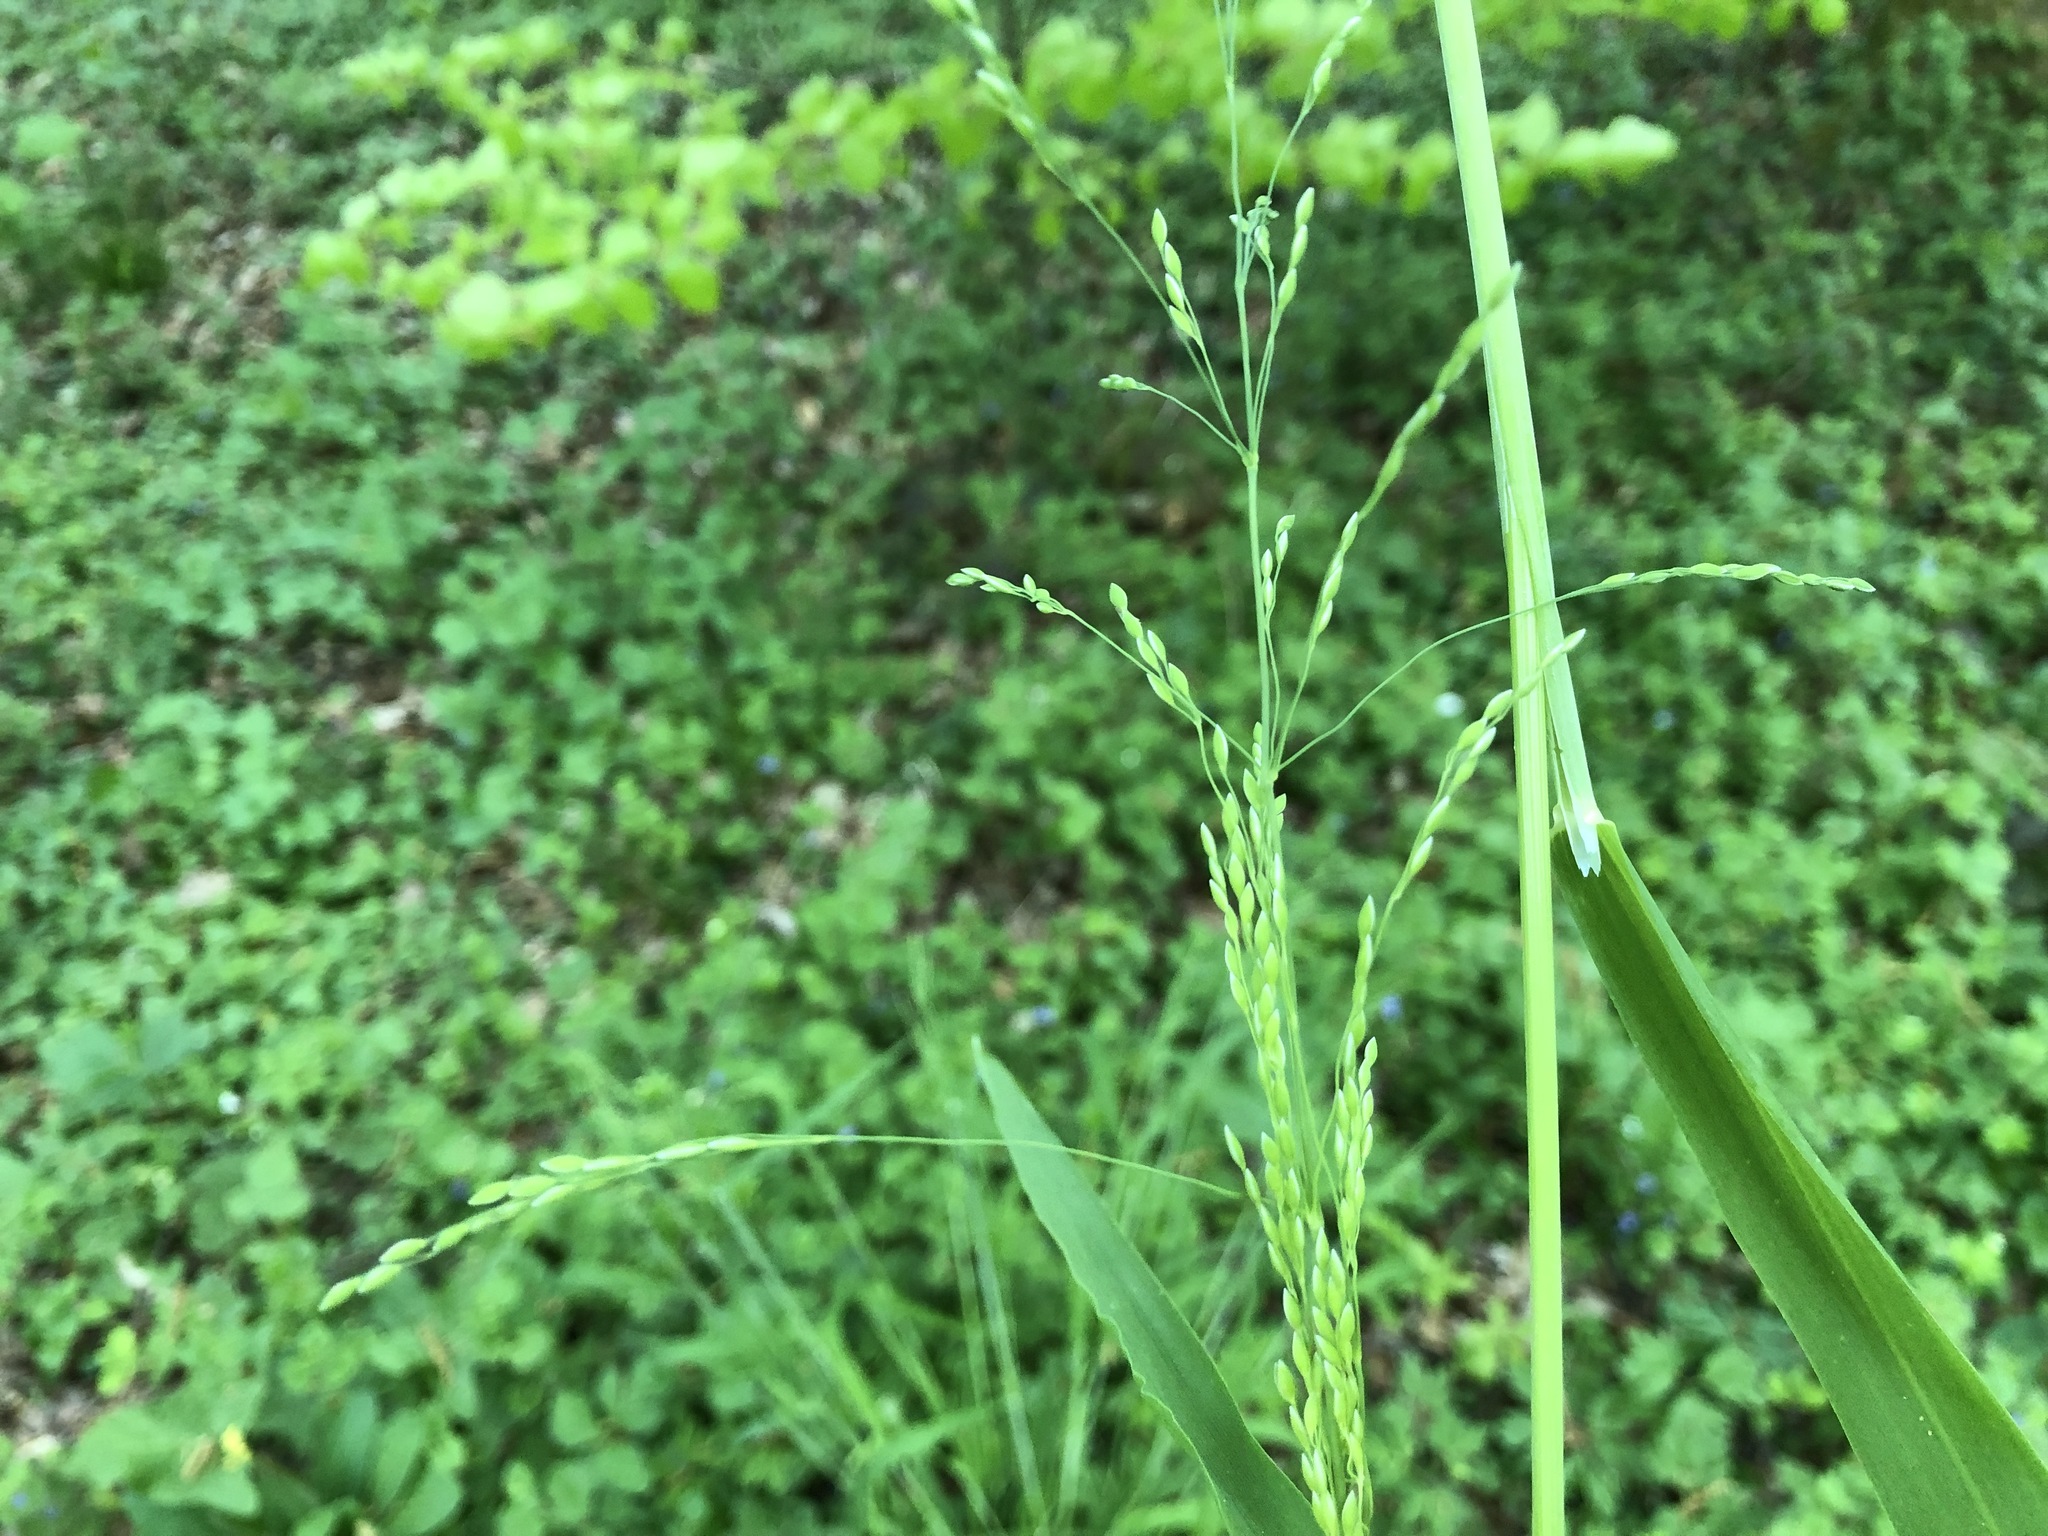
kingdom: Plantae
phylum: Tracheophyta
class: Liliopsida
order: Poales
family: Poaceae
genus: Milium
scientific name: Milium effusum
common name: Wood millet
